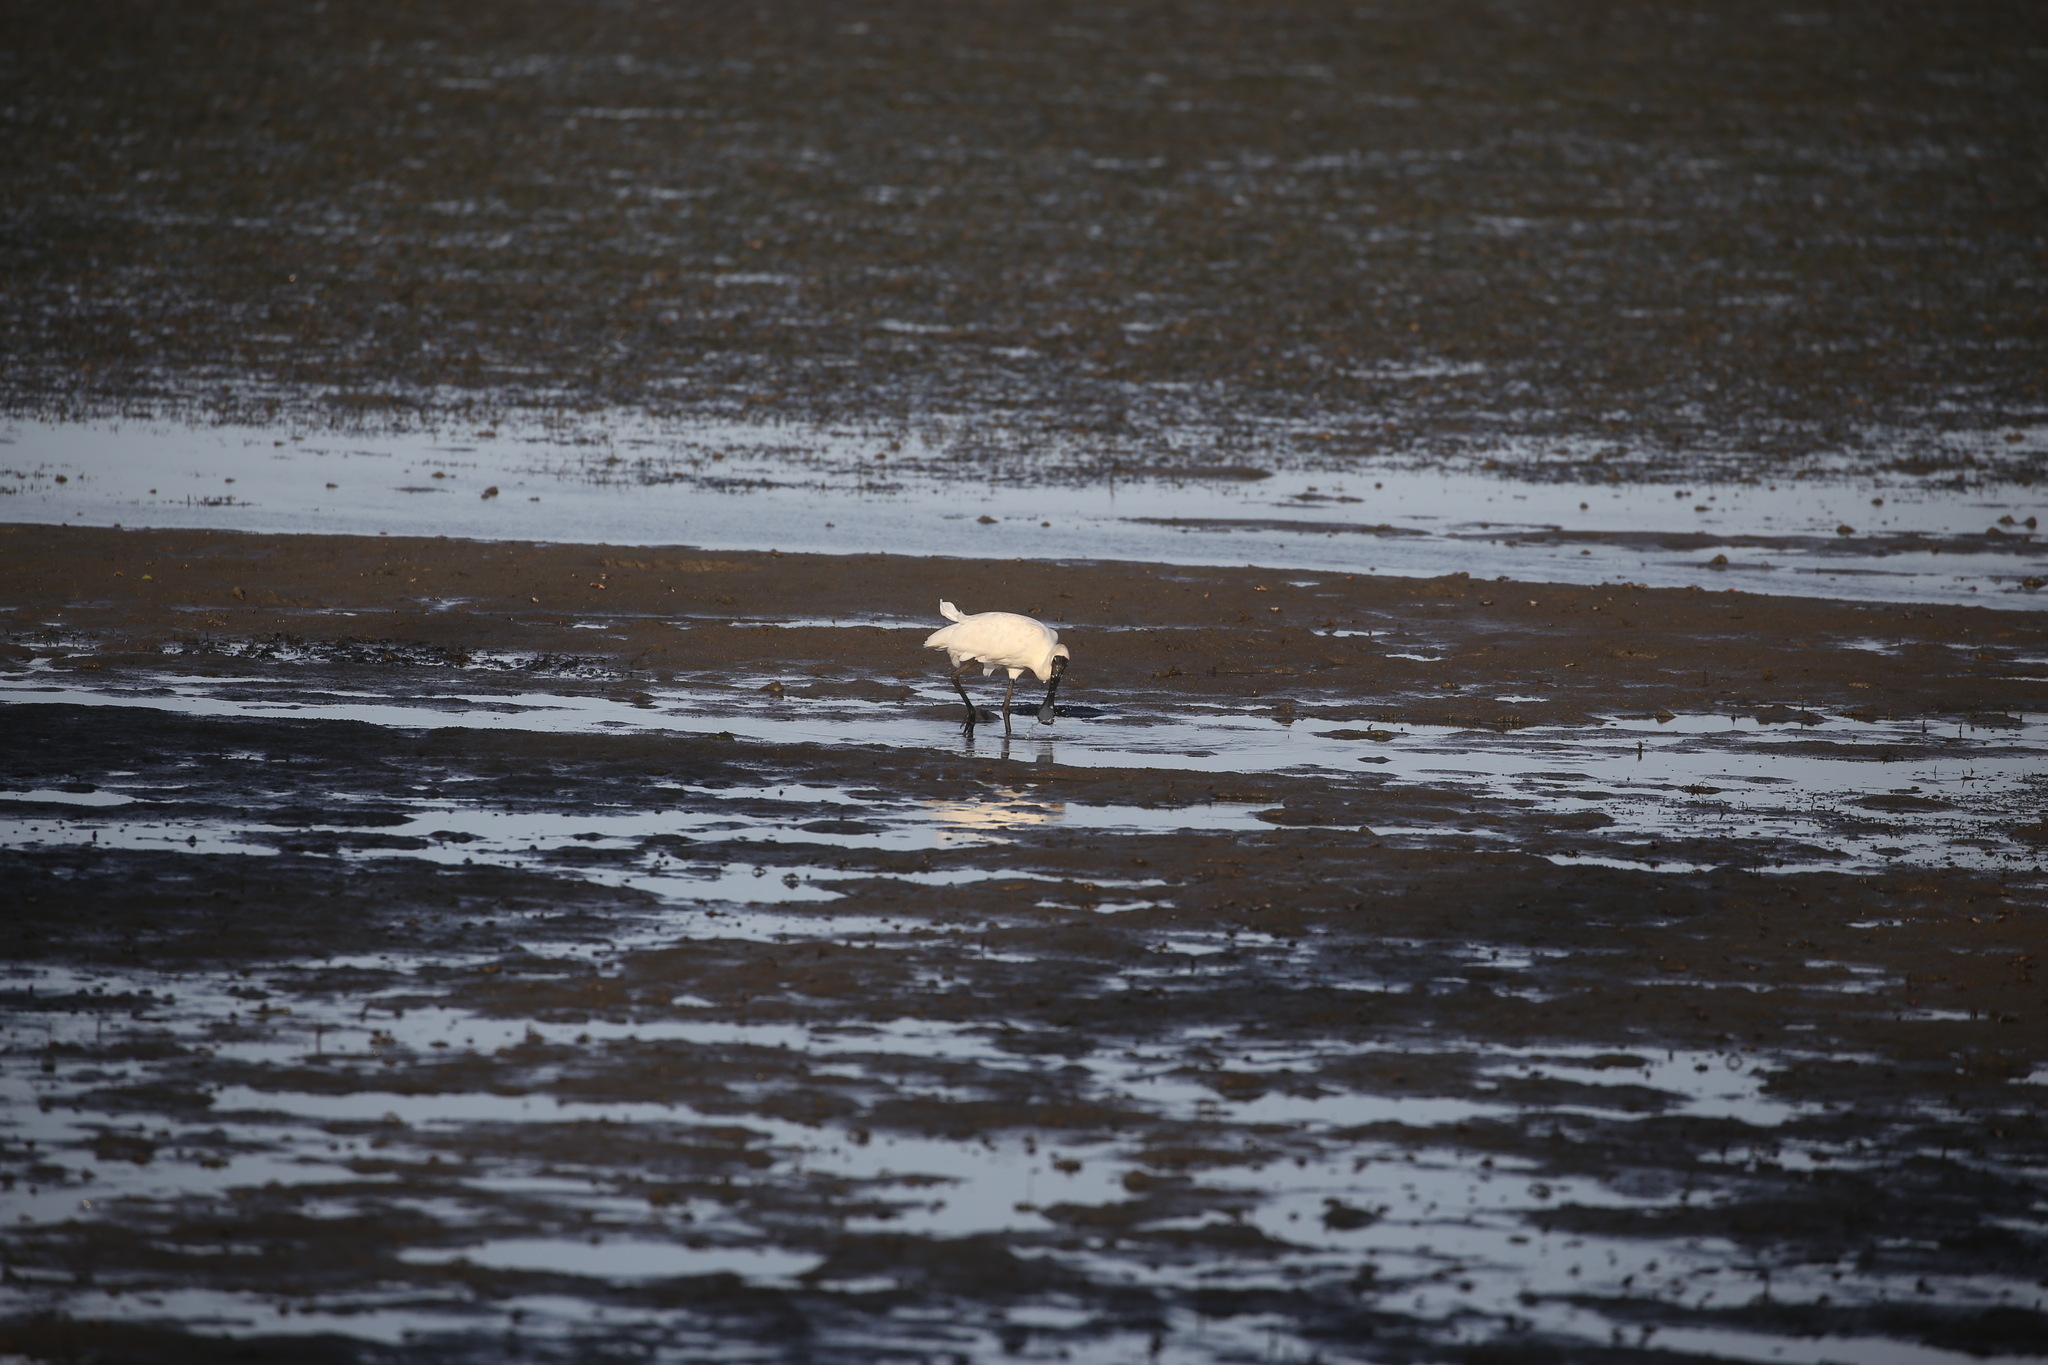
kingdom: Animalia
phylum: Chordata
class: Aves
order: Pelecaniformes
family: Threskiornithidae
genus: Platalea
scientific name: Platalea regia
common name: Royal spoonbill
